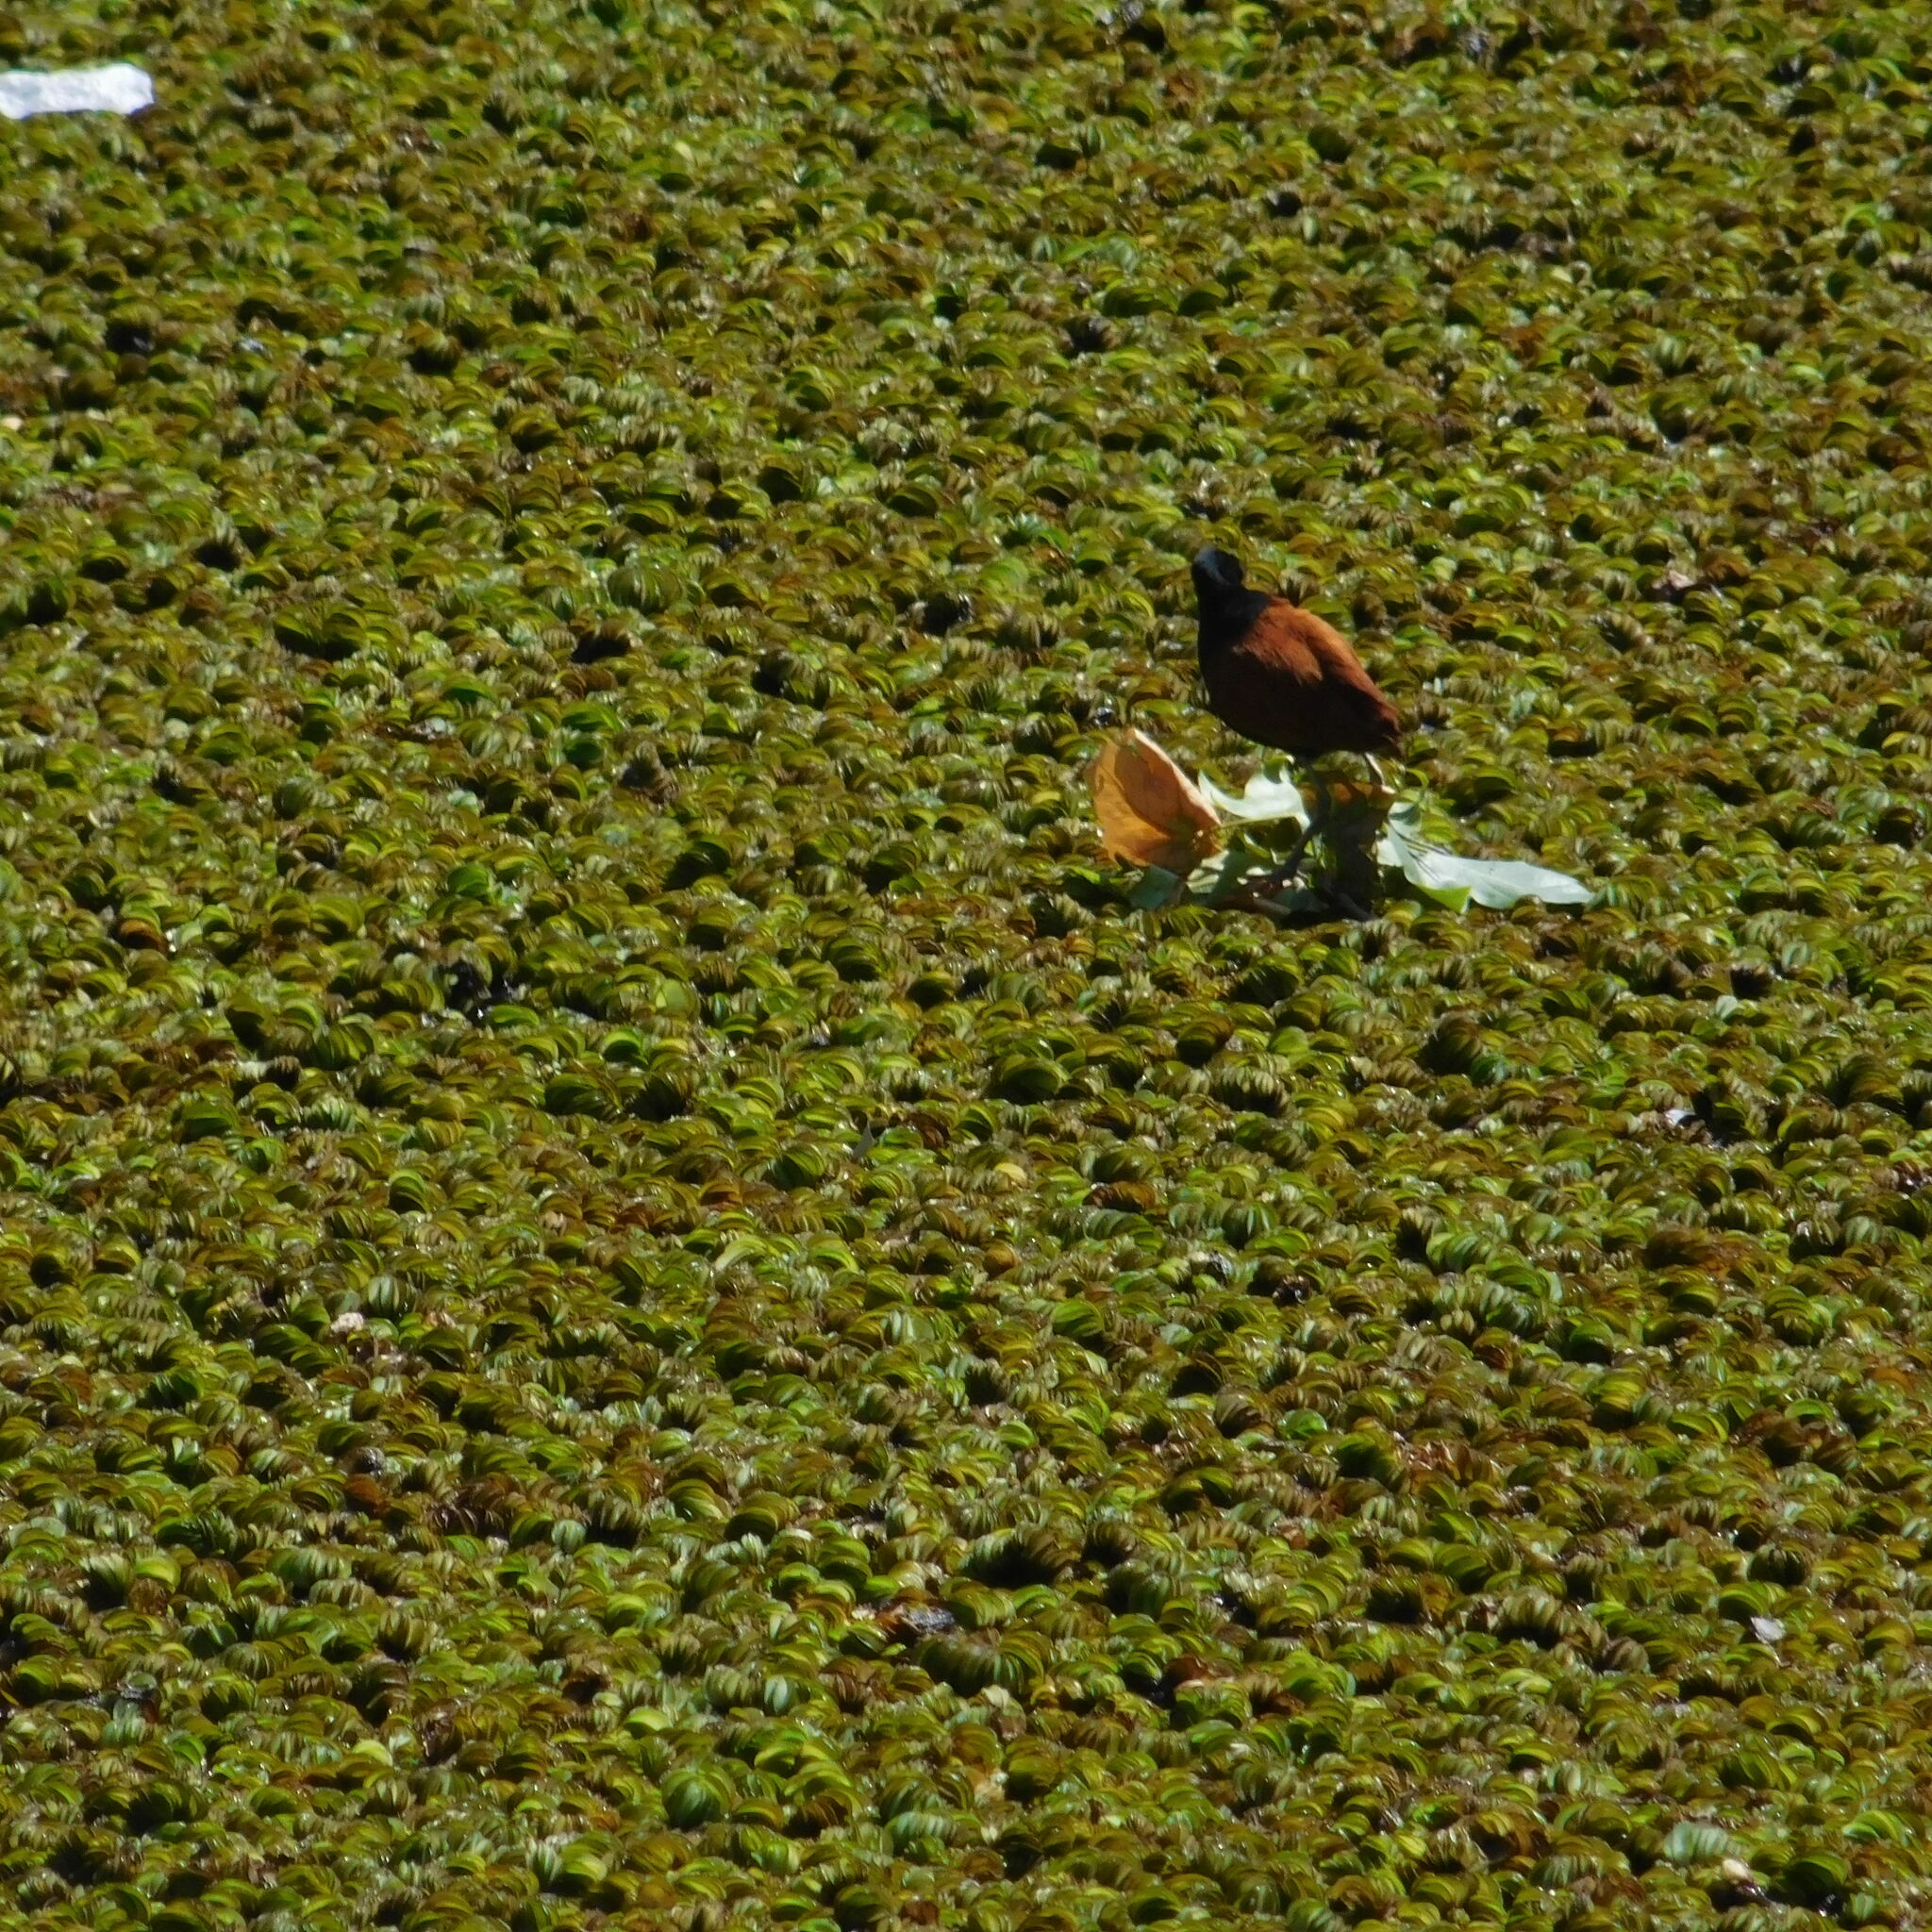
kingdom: Animalia
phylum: Chordata
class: Aves
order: Charadriiformes
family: Jacanidae
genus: Jacana
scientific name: Jacana jacana
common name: Wattled jacana
